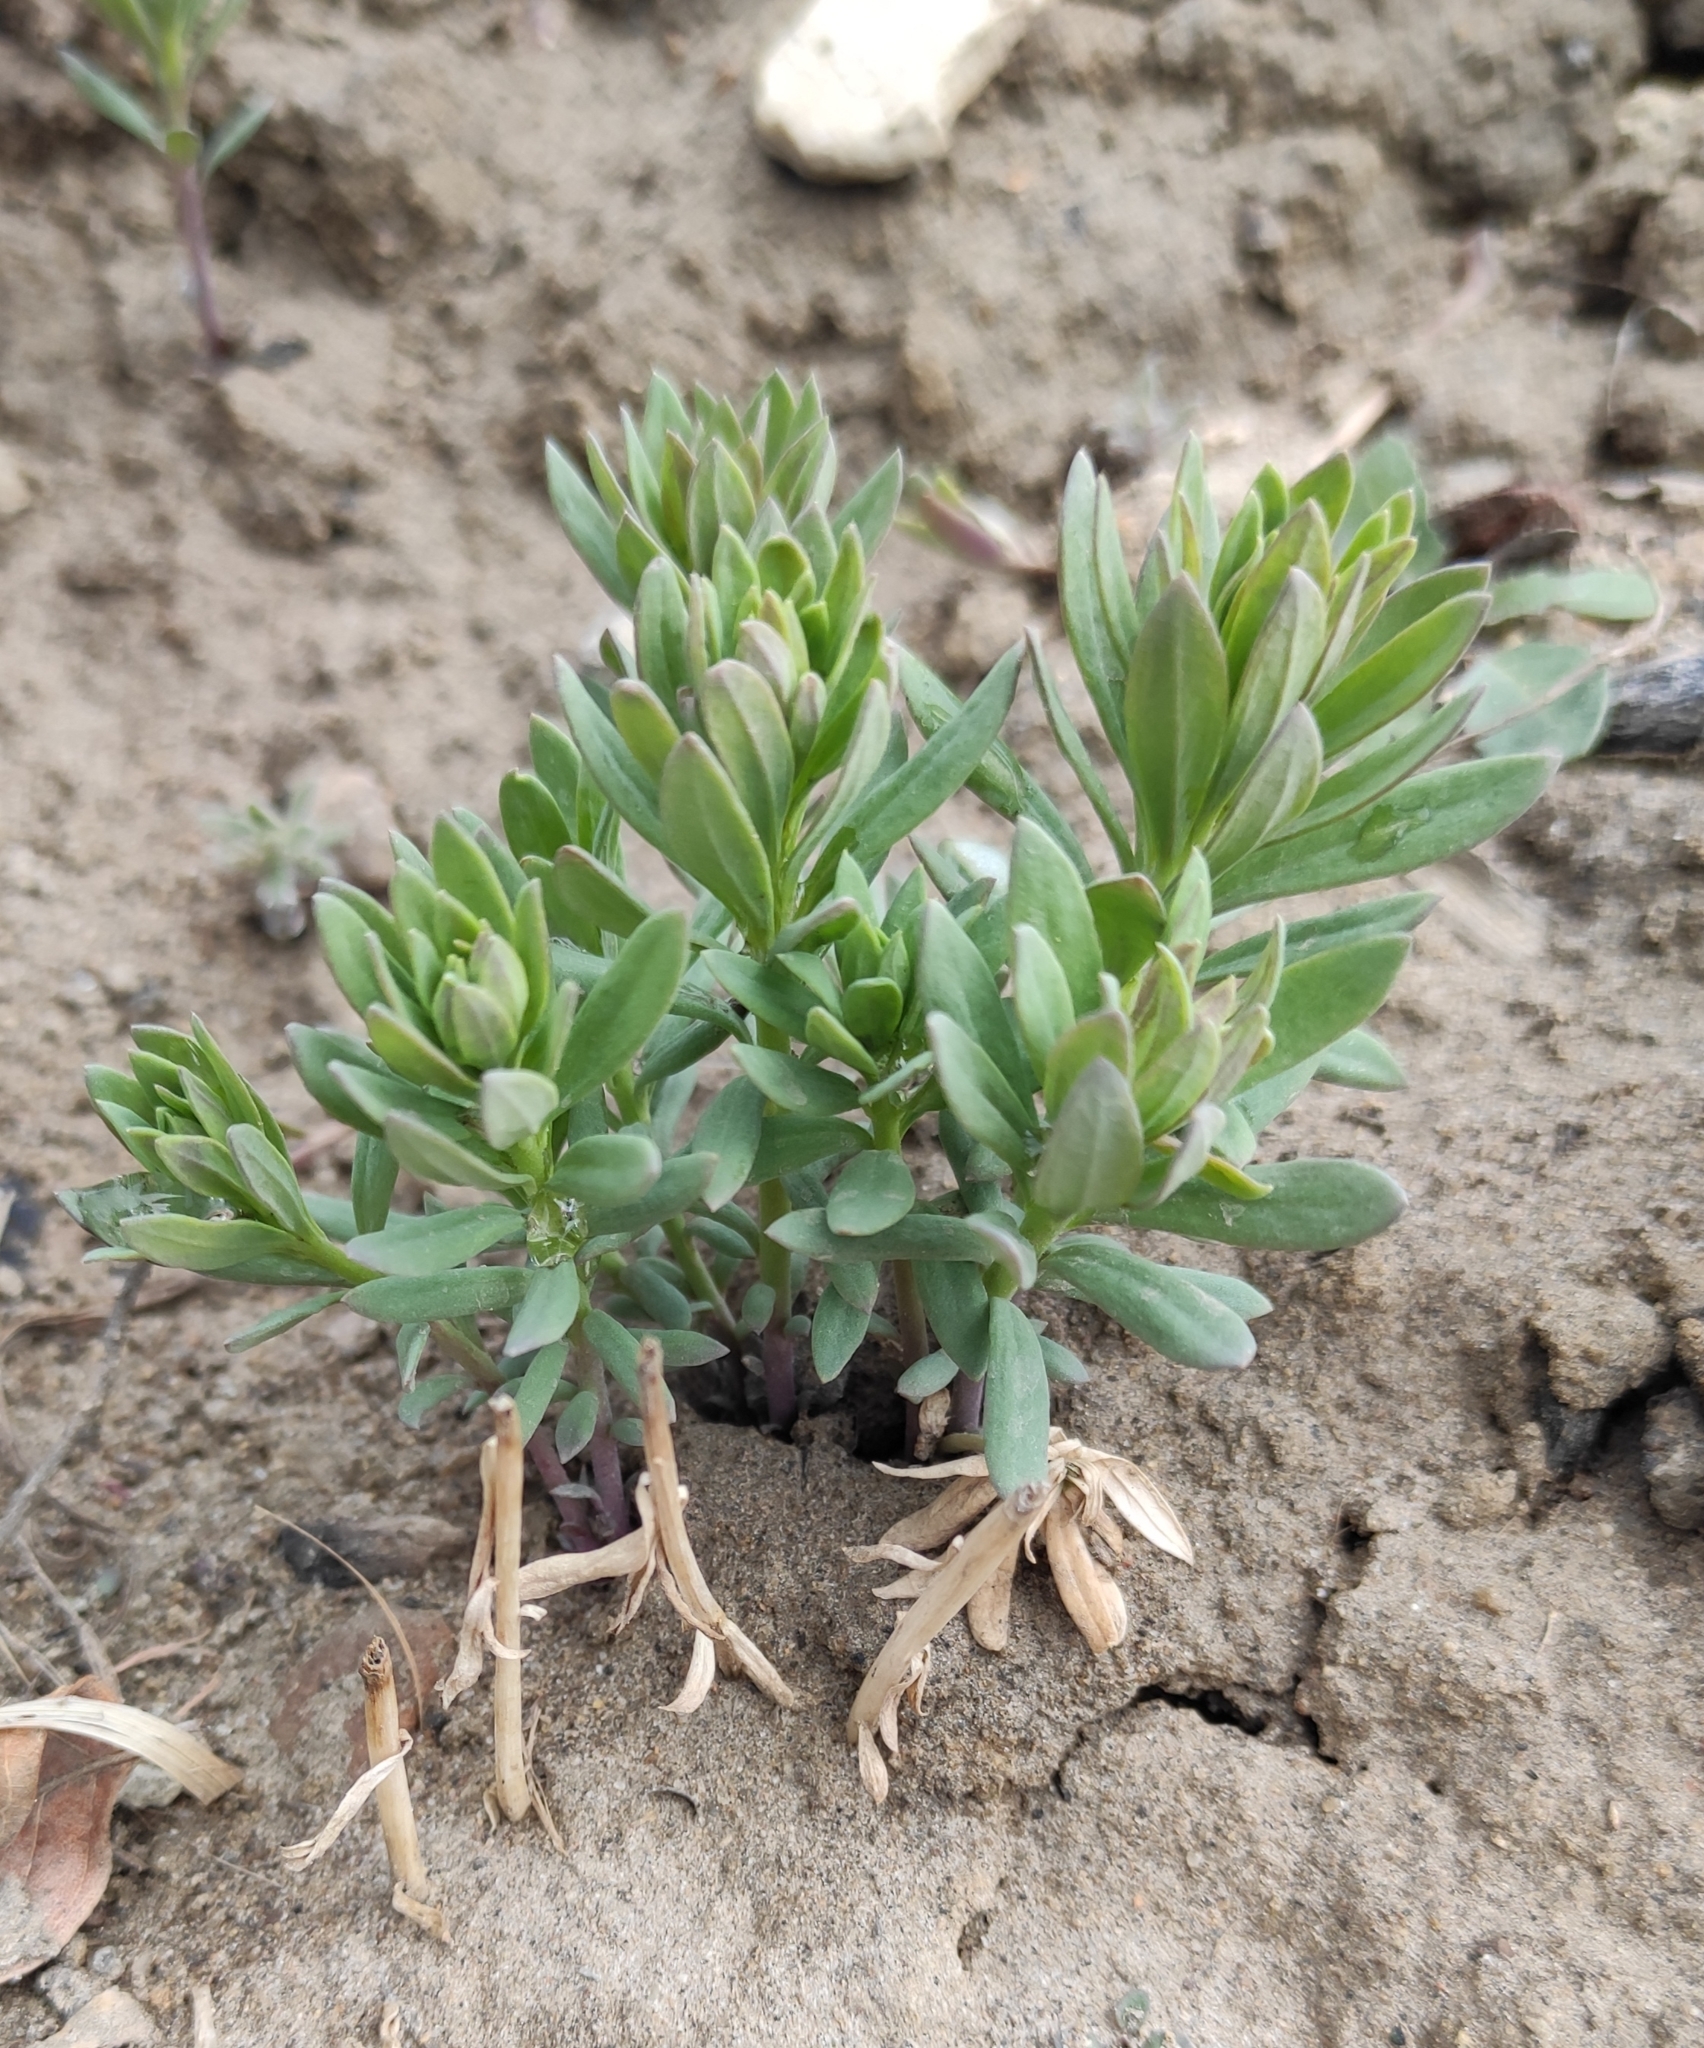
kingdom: Plantae
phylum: Tracheophyta
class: Magnoliopsida
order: Lamiales
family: Plantaginaceae
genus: Linaria
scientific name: Linaria vulgaris
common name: Butter and eggs
